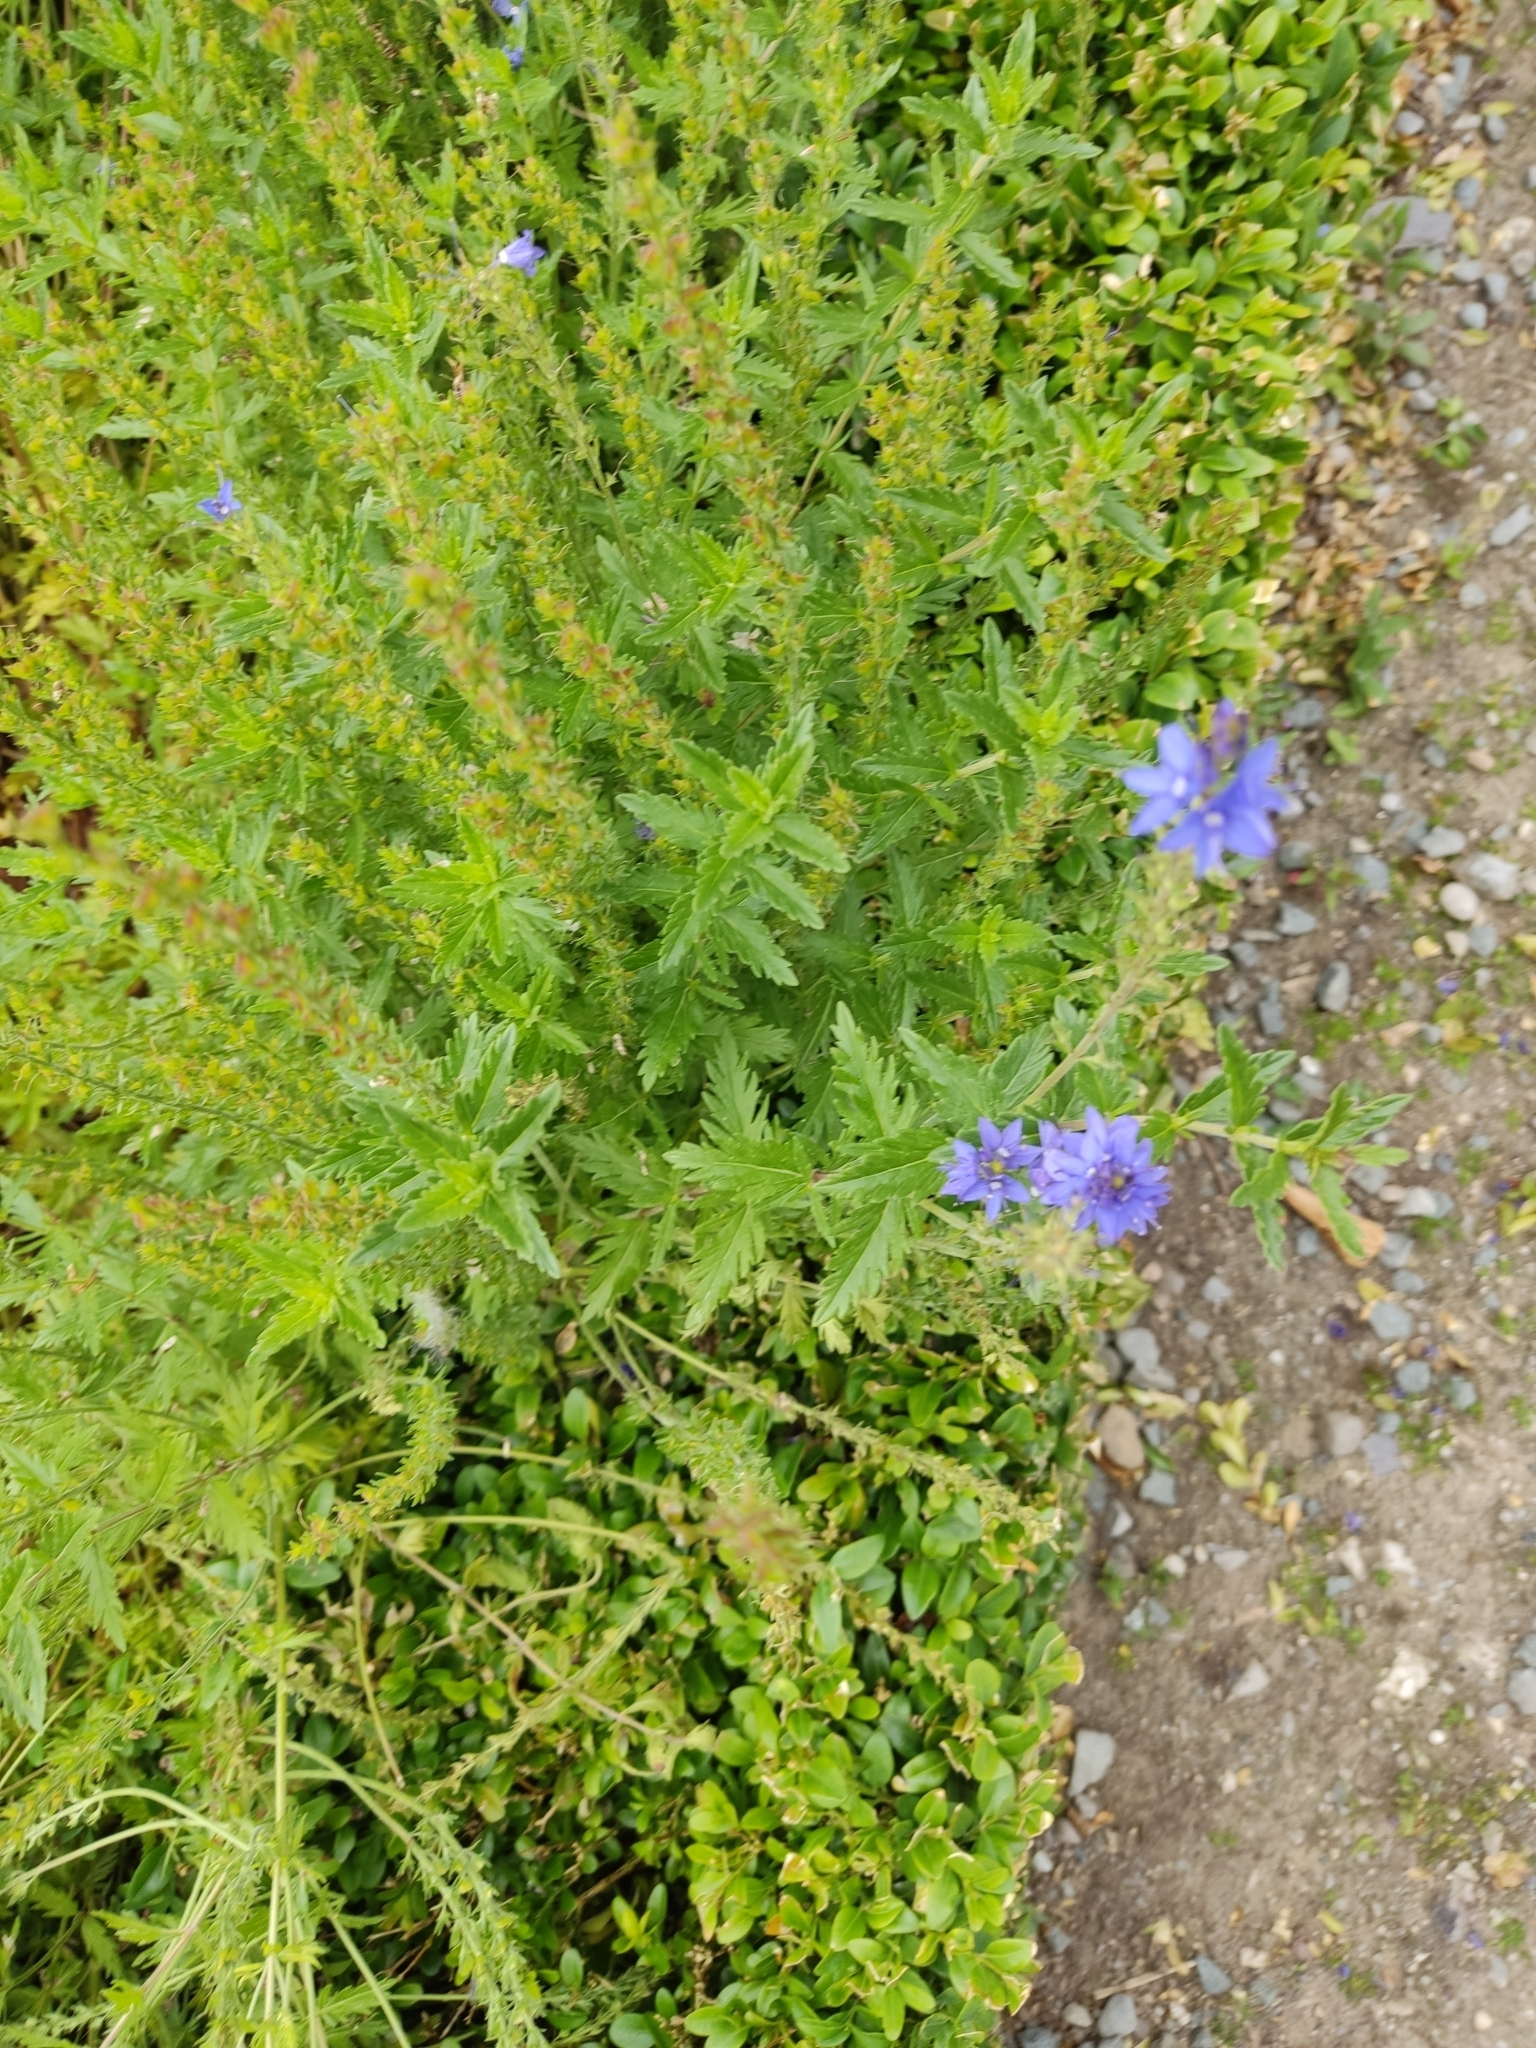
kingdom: Plantae
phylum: Tracheophyta
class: Magnoliopsida
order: Lamiales
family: Plantaginaceae
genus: Veronica
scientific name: Veronica teucrium
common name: Large speedwell
